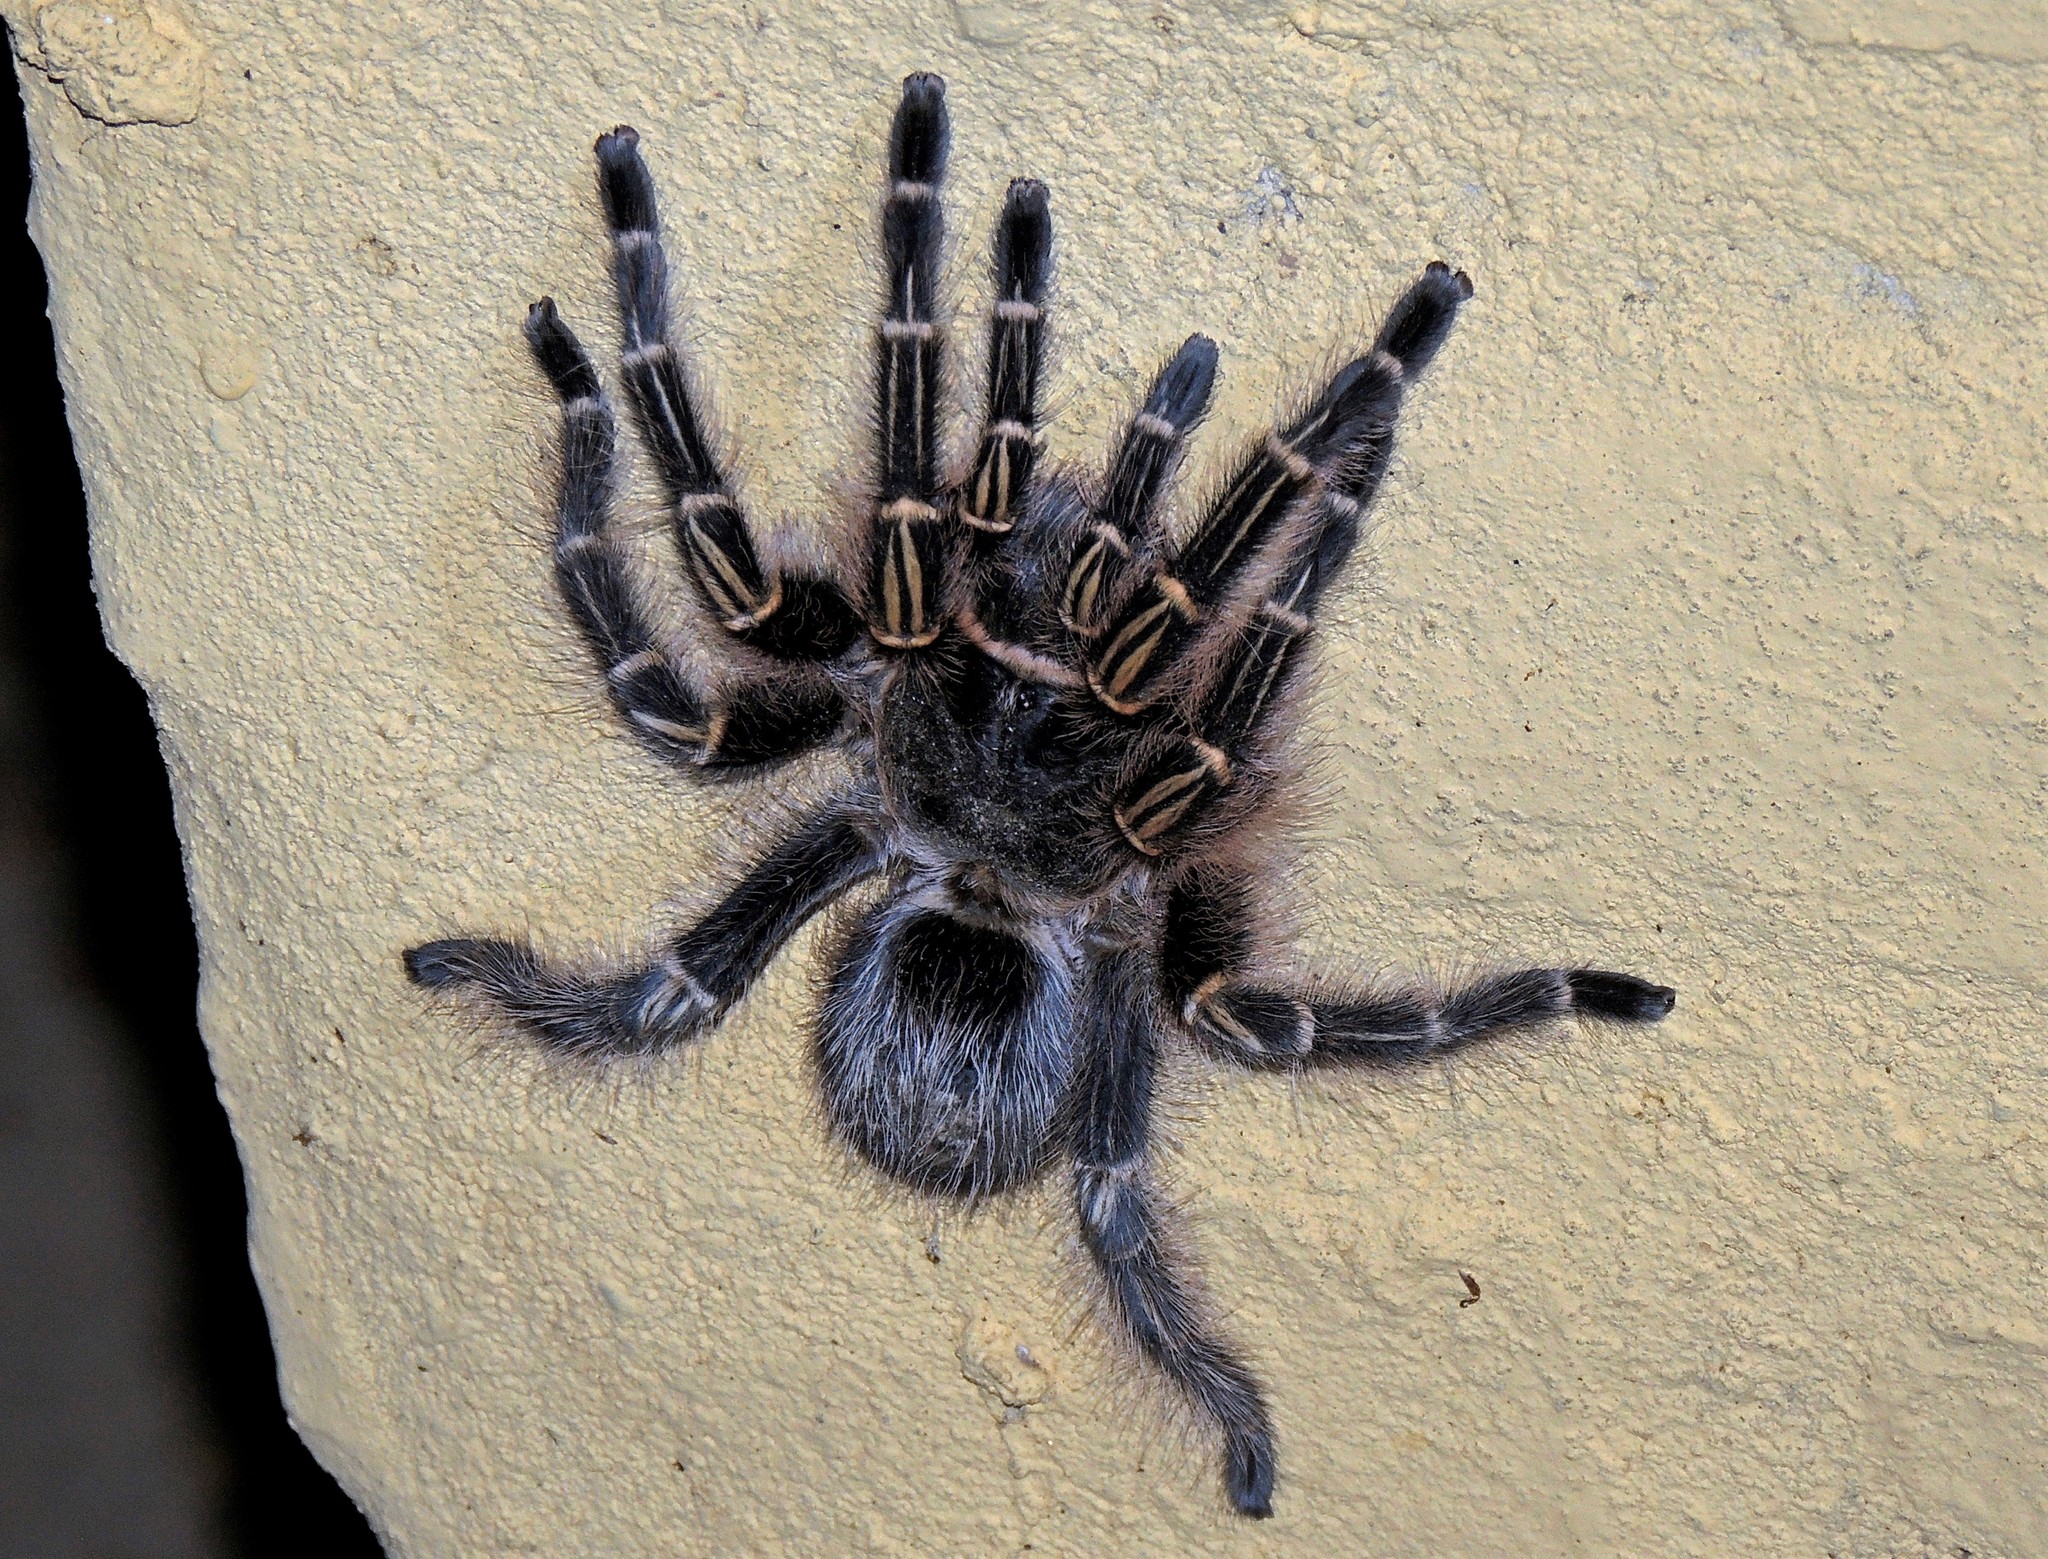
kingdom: Animalia
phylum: Arthropoda
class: Arachnida
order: Araneae
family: Theraphosidae
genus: Grammostola
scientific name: Grammostola pulchripes
